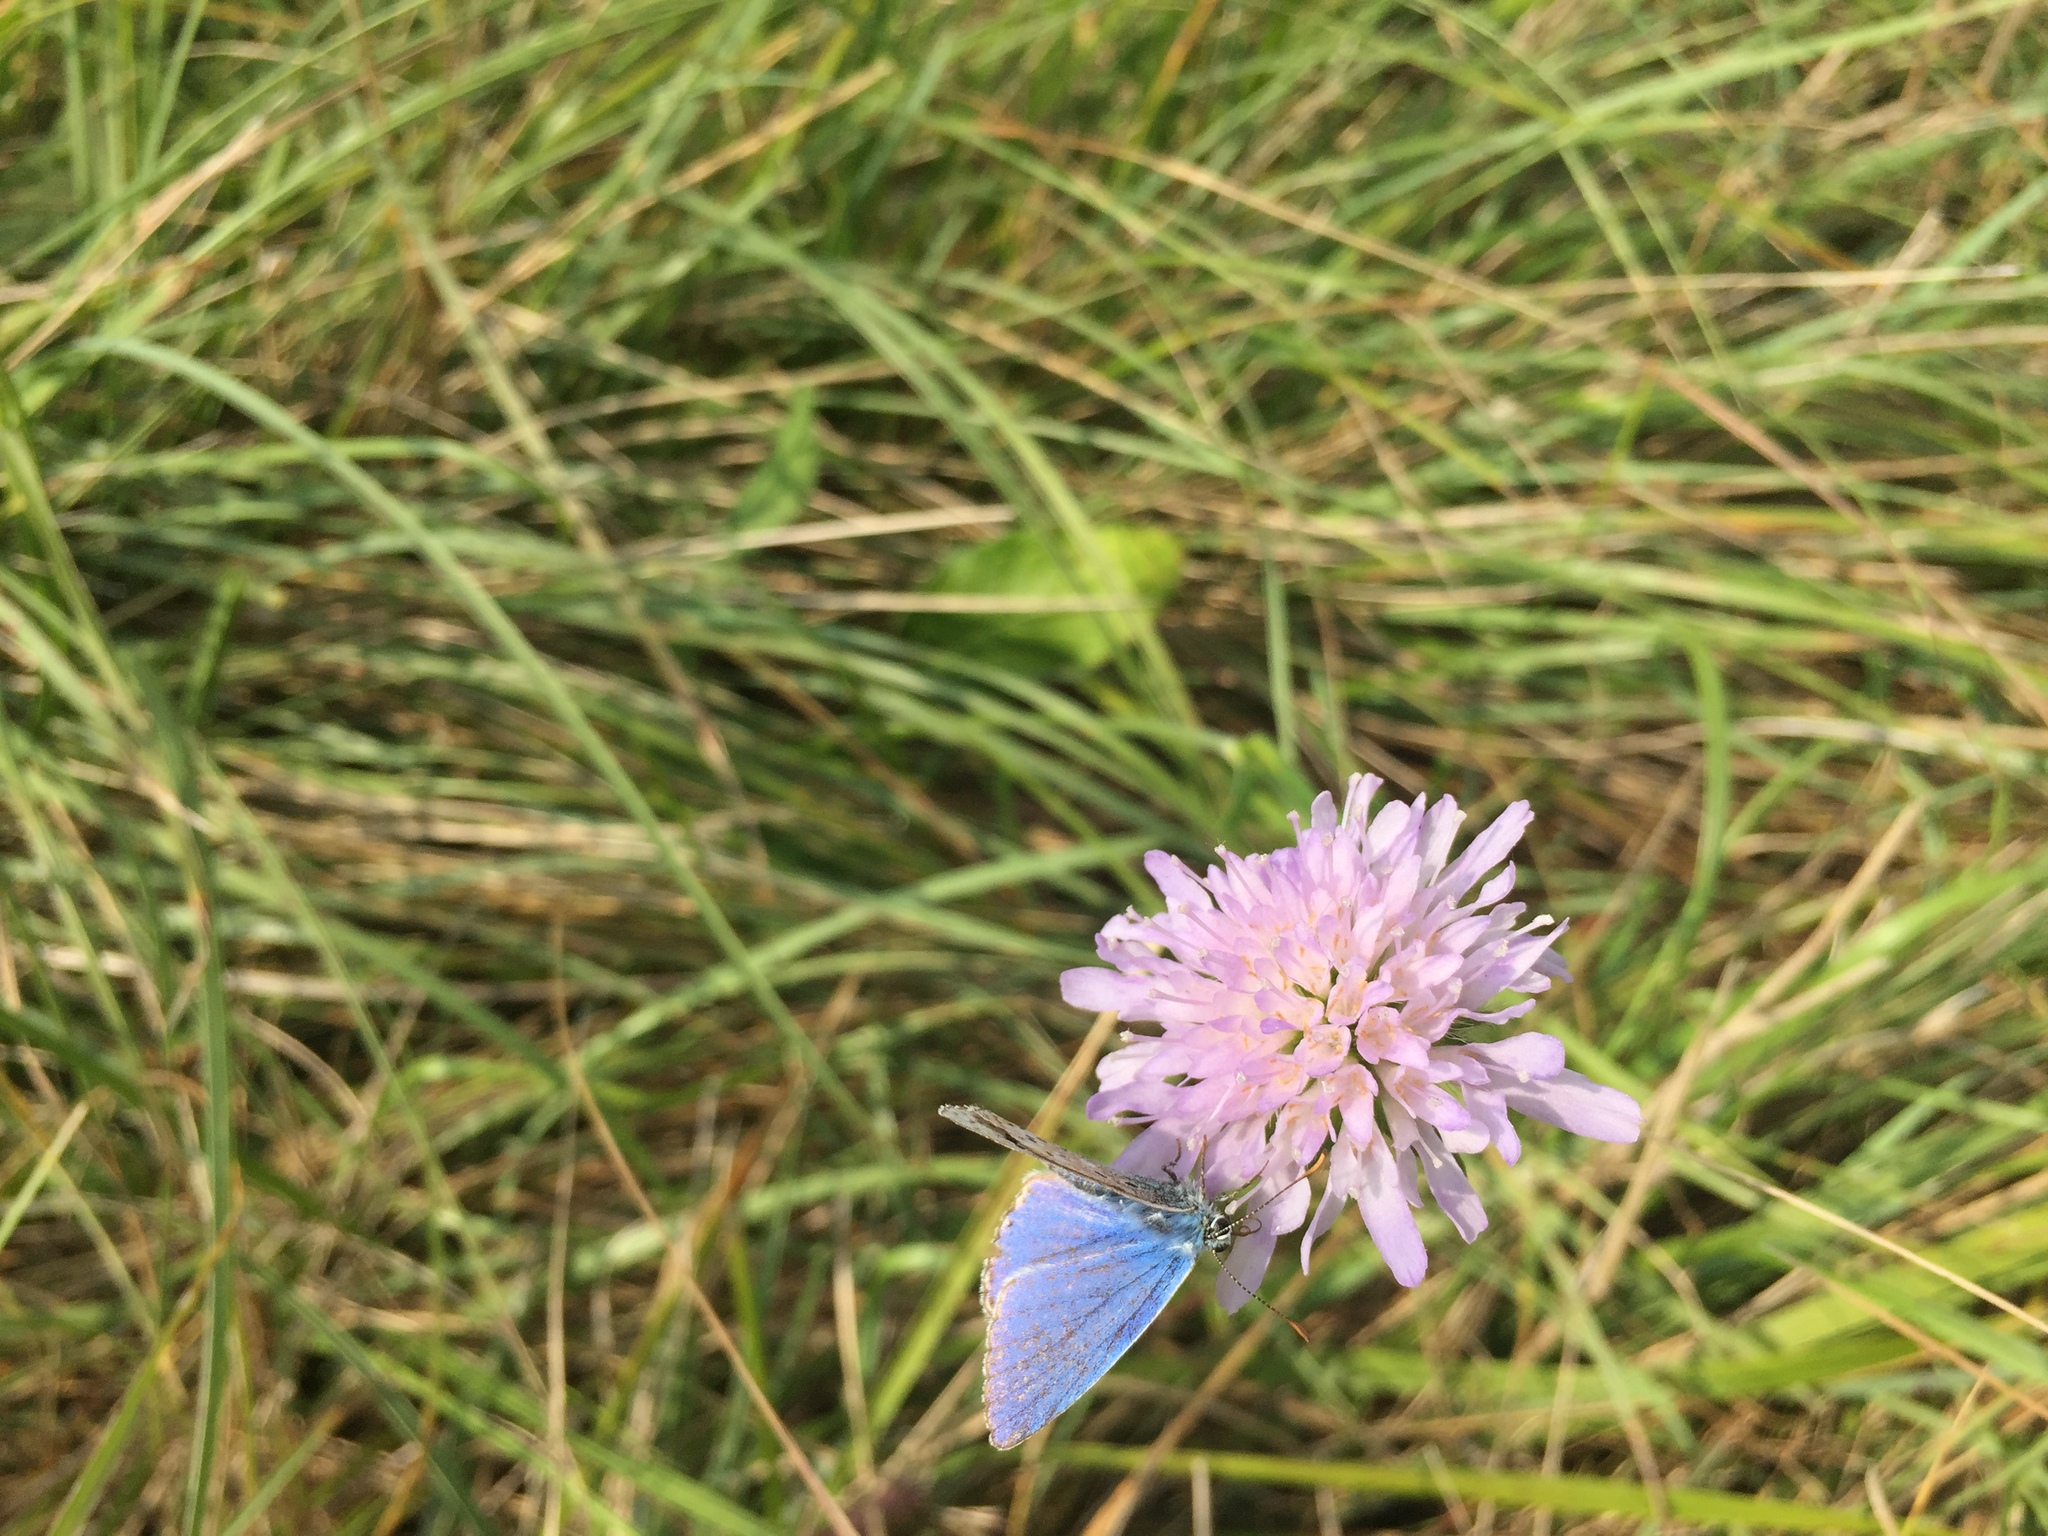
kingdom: Animalia
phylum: Arthropoda
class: Insecta
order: Lepidoptera
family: Lycaenidae
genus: Lysandra
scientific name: Lysandra bellargus
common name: Adonis blue
